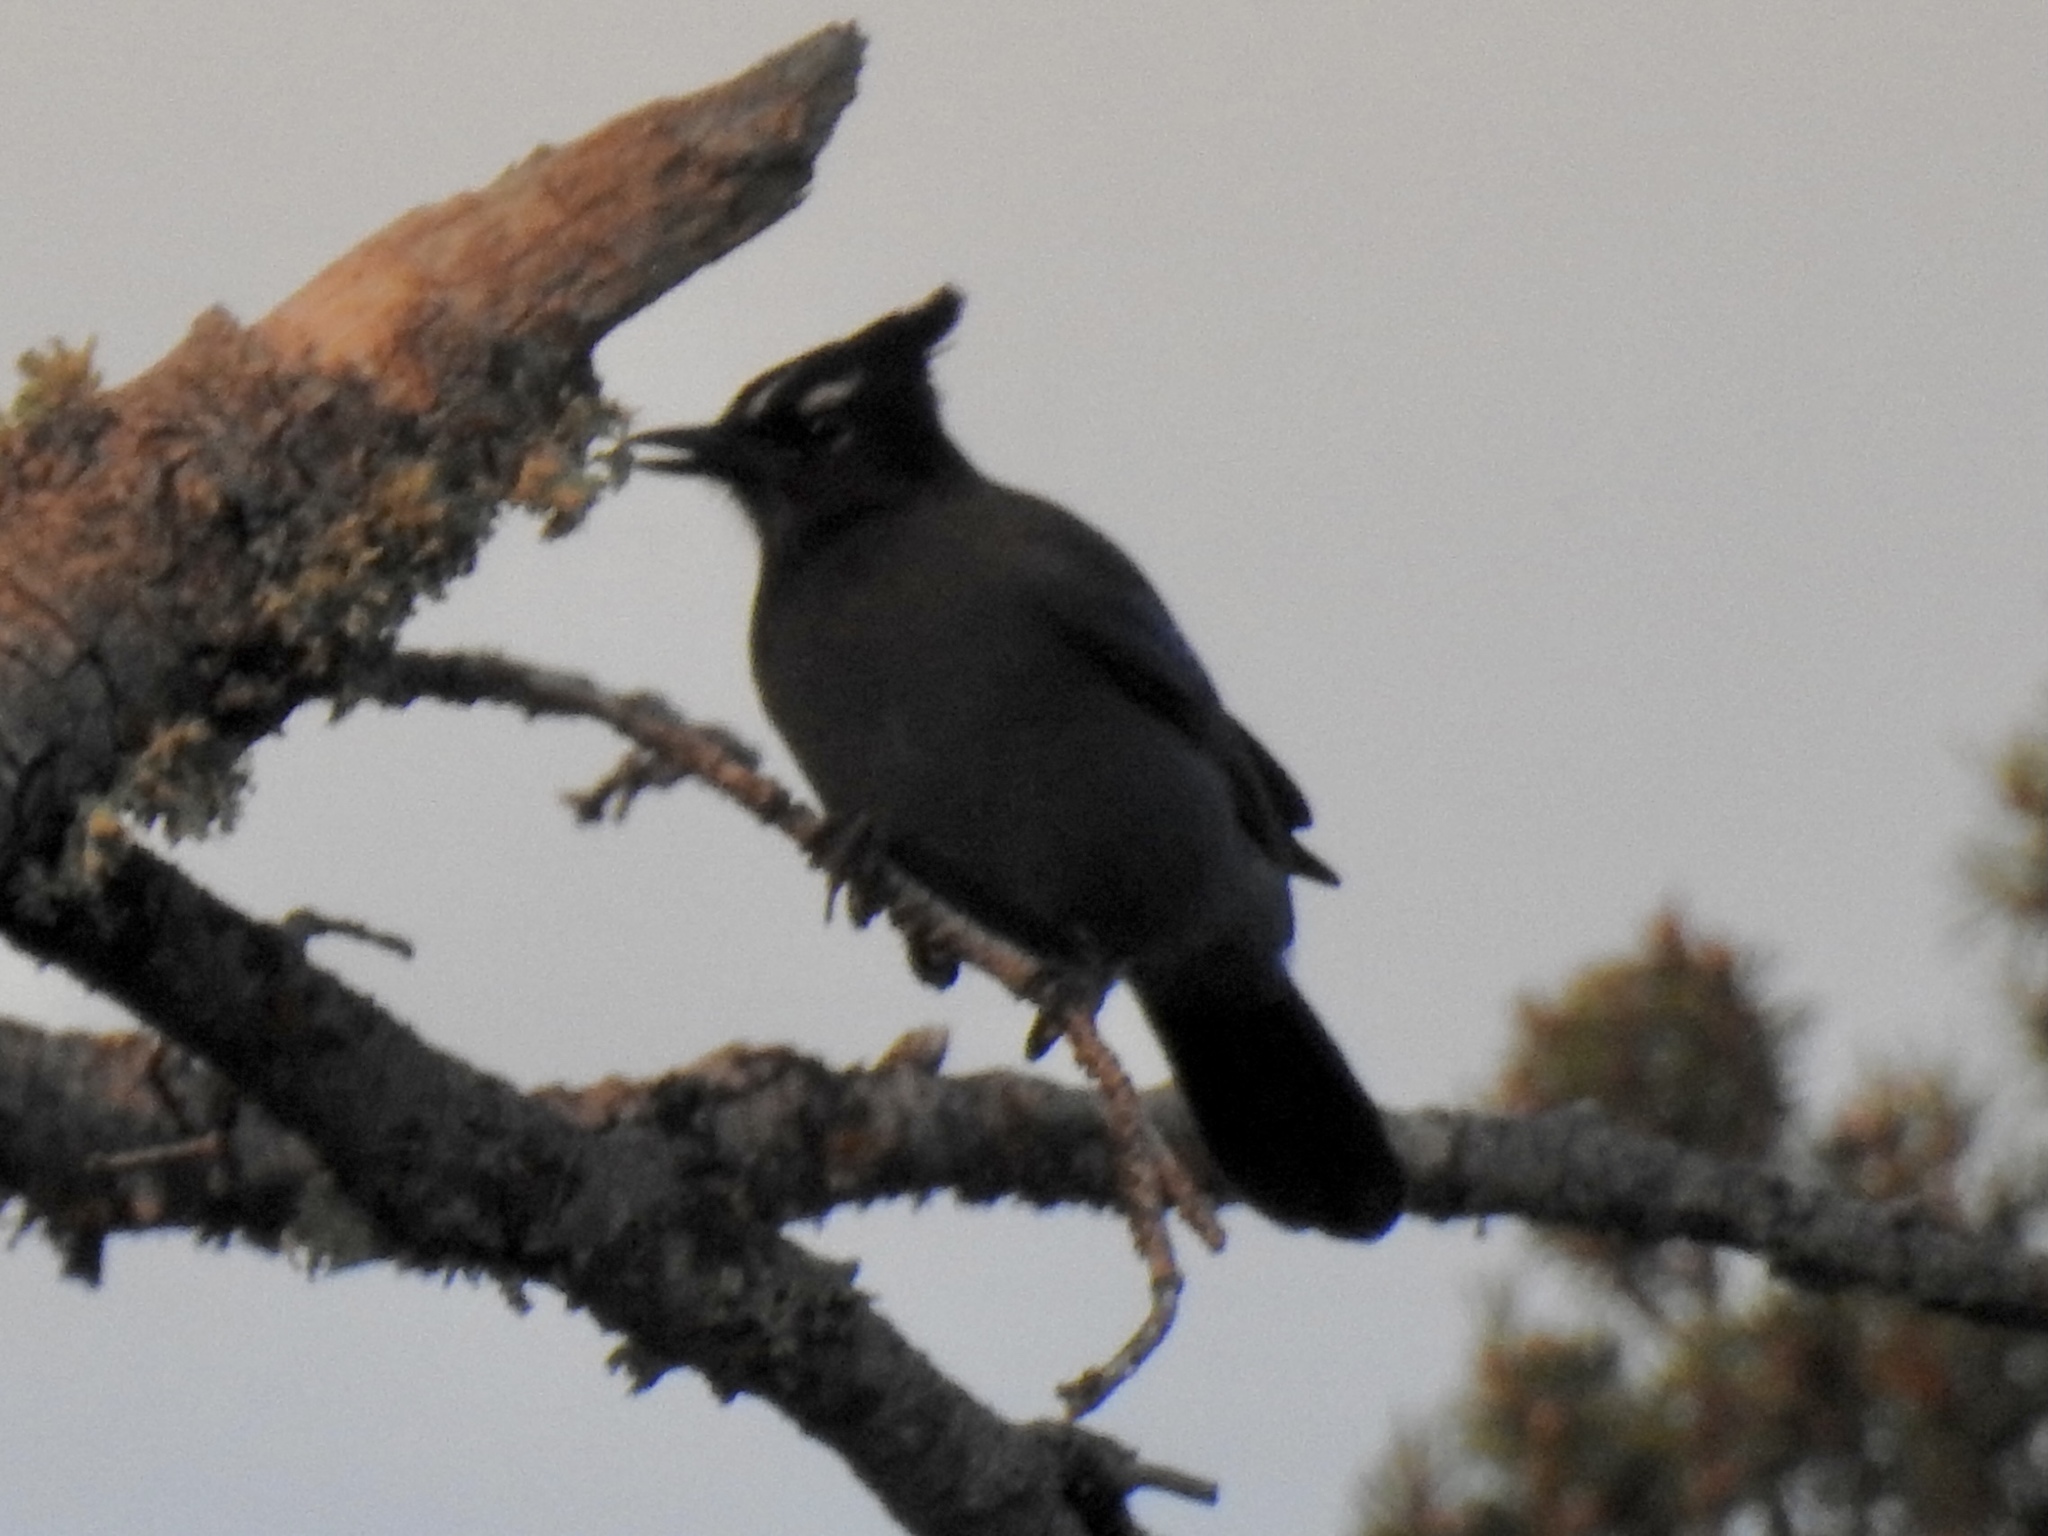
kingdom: Animalia
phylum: Chordata
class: Aves
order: Passeriformes
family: Corvidae
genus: Cyanocitta
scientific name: Cyanocitta stelleri
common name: Steller's jay
